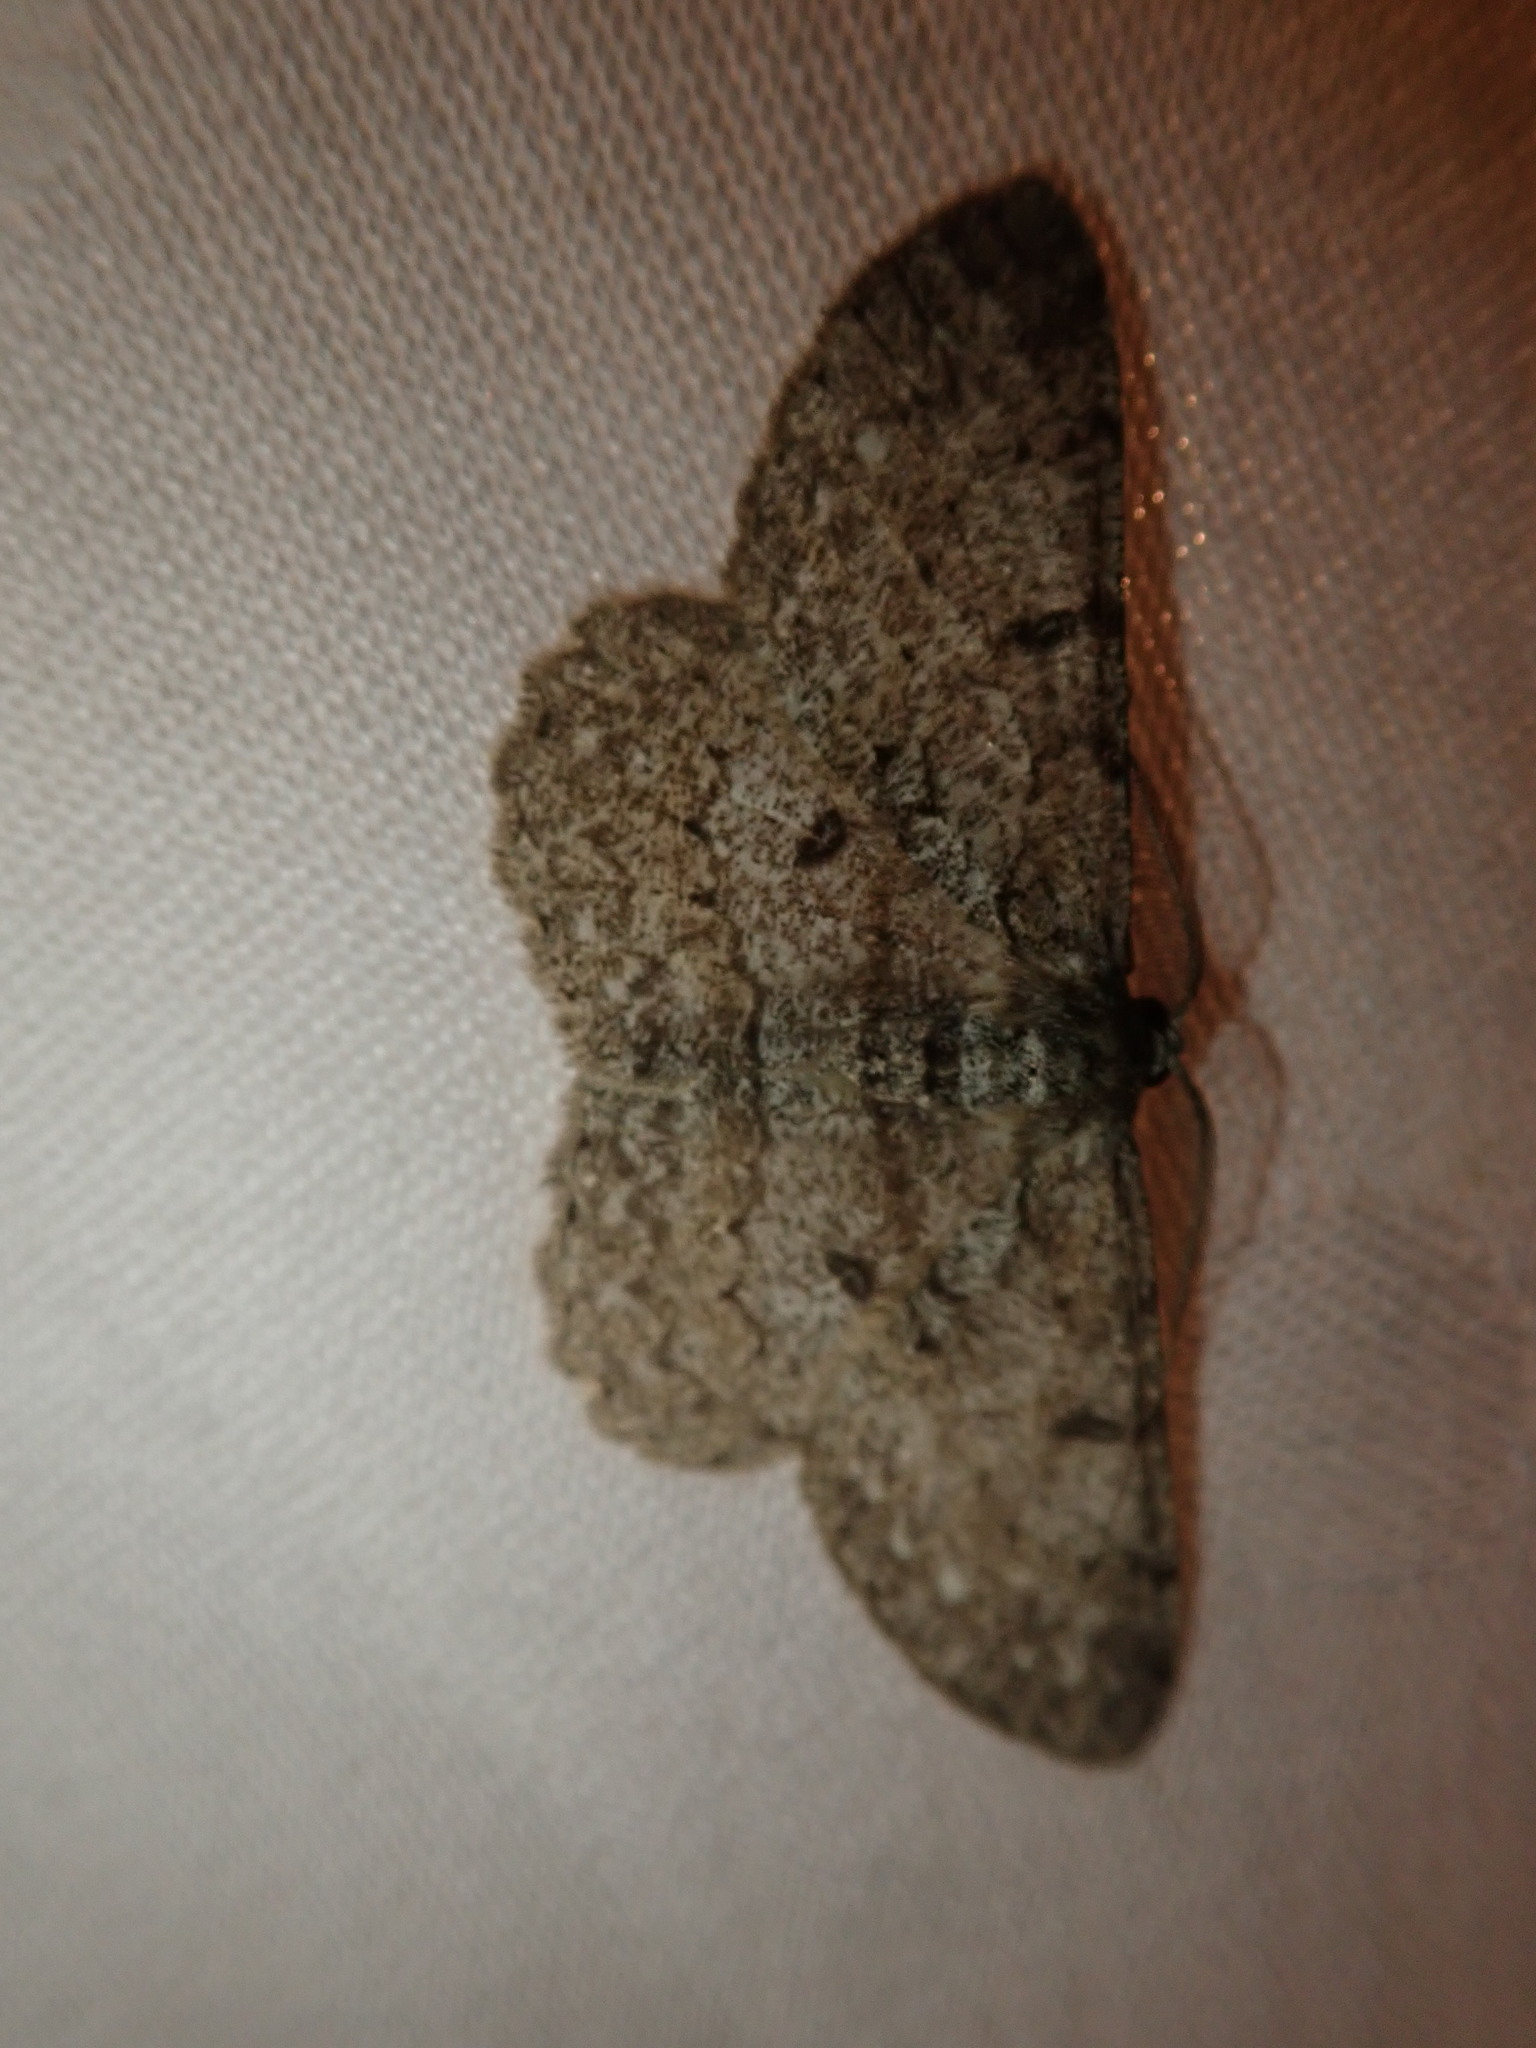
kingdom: Animalia
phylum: Arthropoda
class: Insecta
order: Lepidoptera
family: Geometridae
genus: Hypomecis
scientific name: Hypomecis punctinalis
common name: Pale oak beauty
